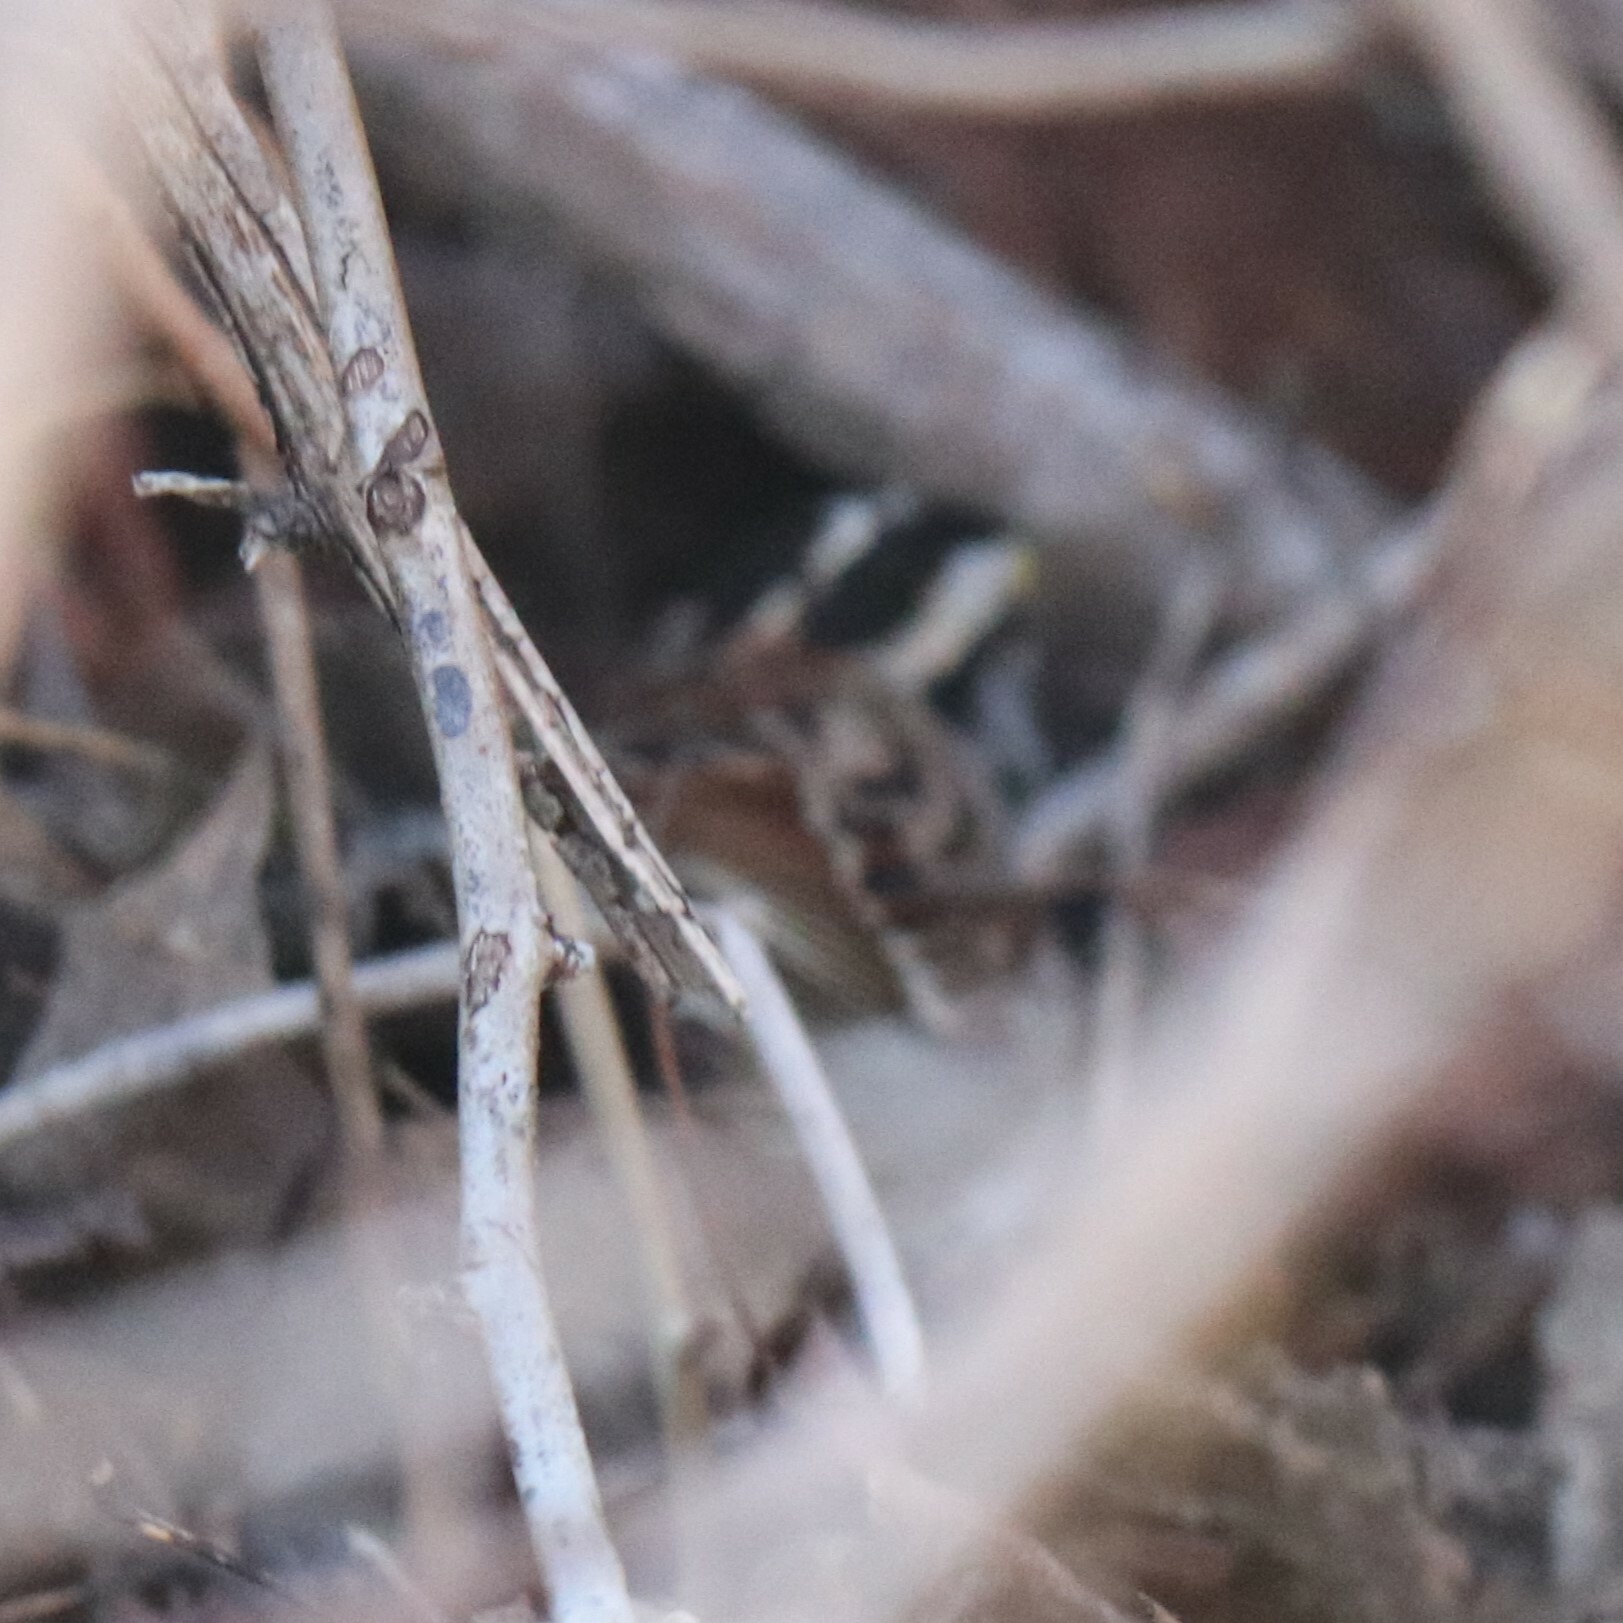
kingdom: Animalia
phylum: Chordata
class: Aves
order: Passeriformes
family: Passerellidae
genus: Zonotrichia
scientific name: Zonotrichia albicollis
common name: White-throated sparrow
